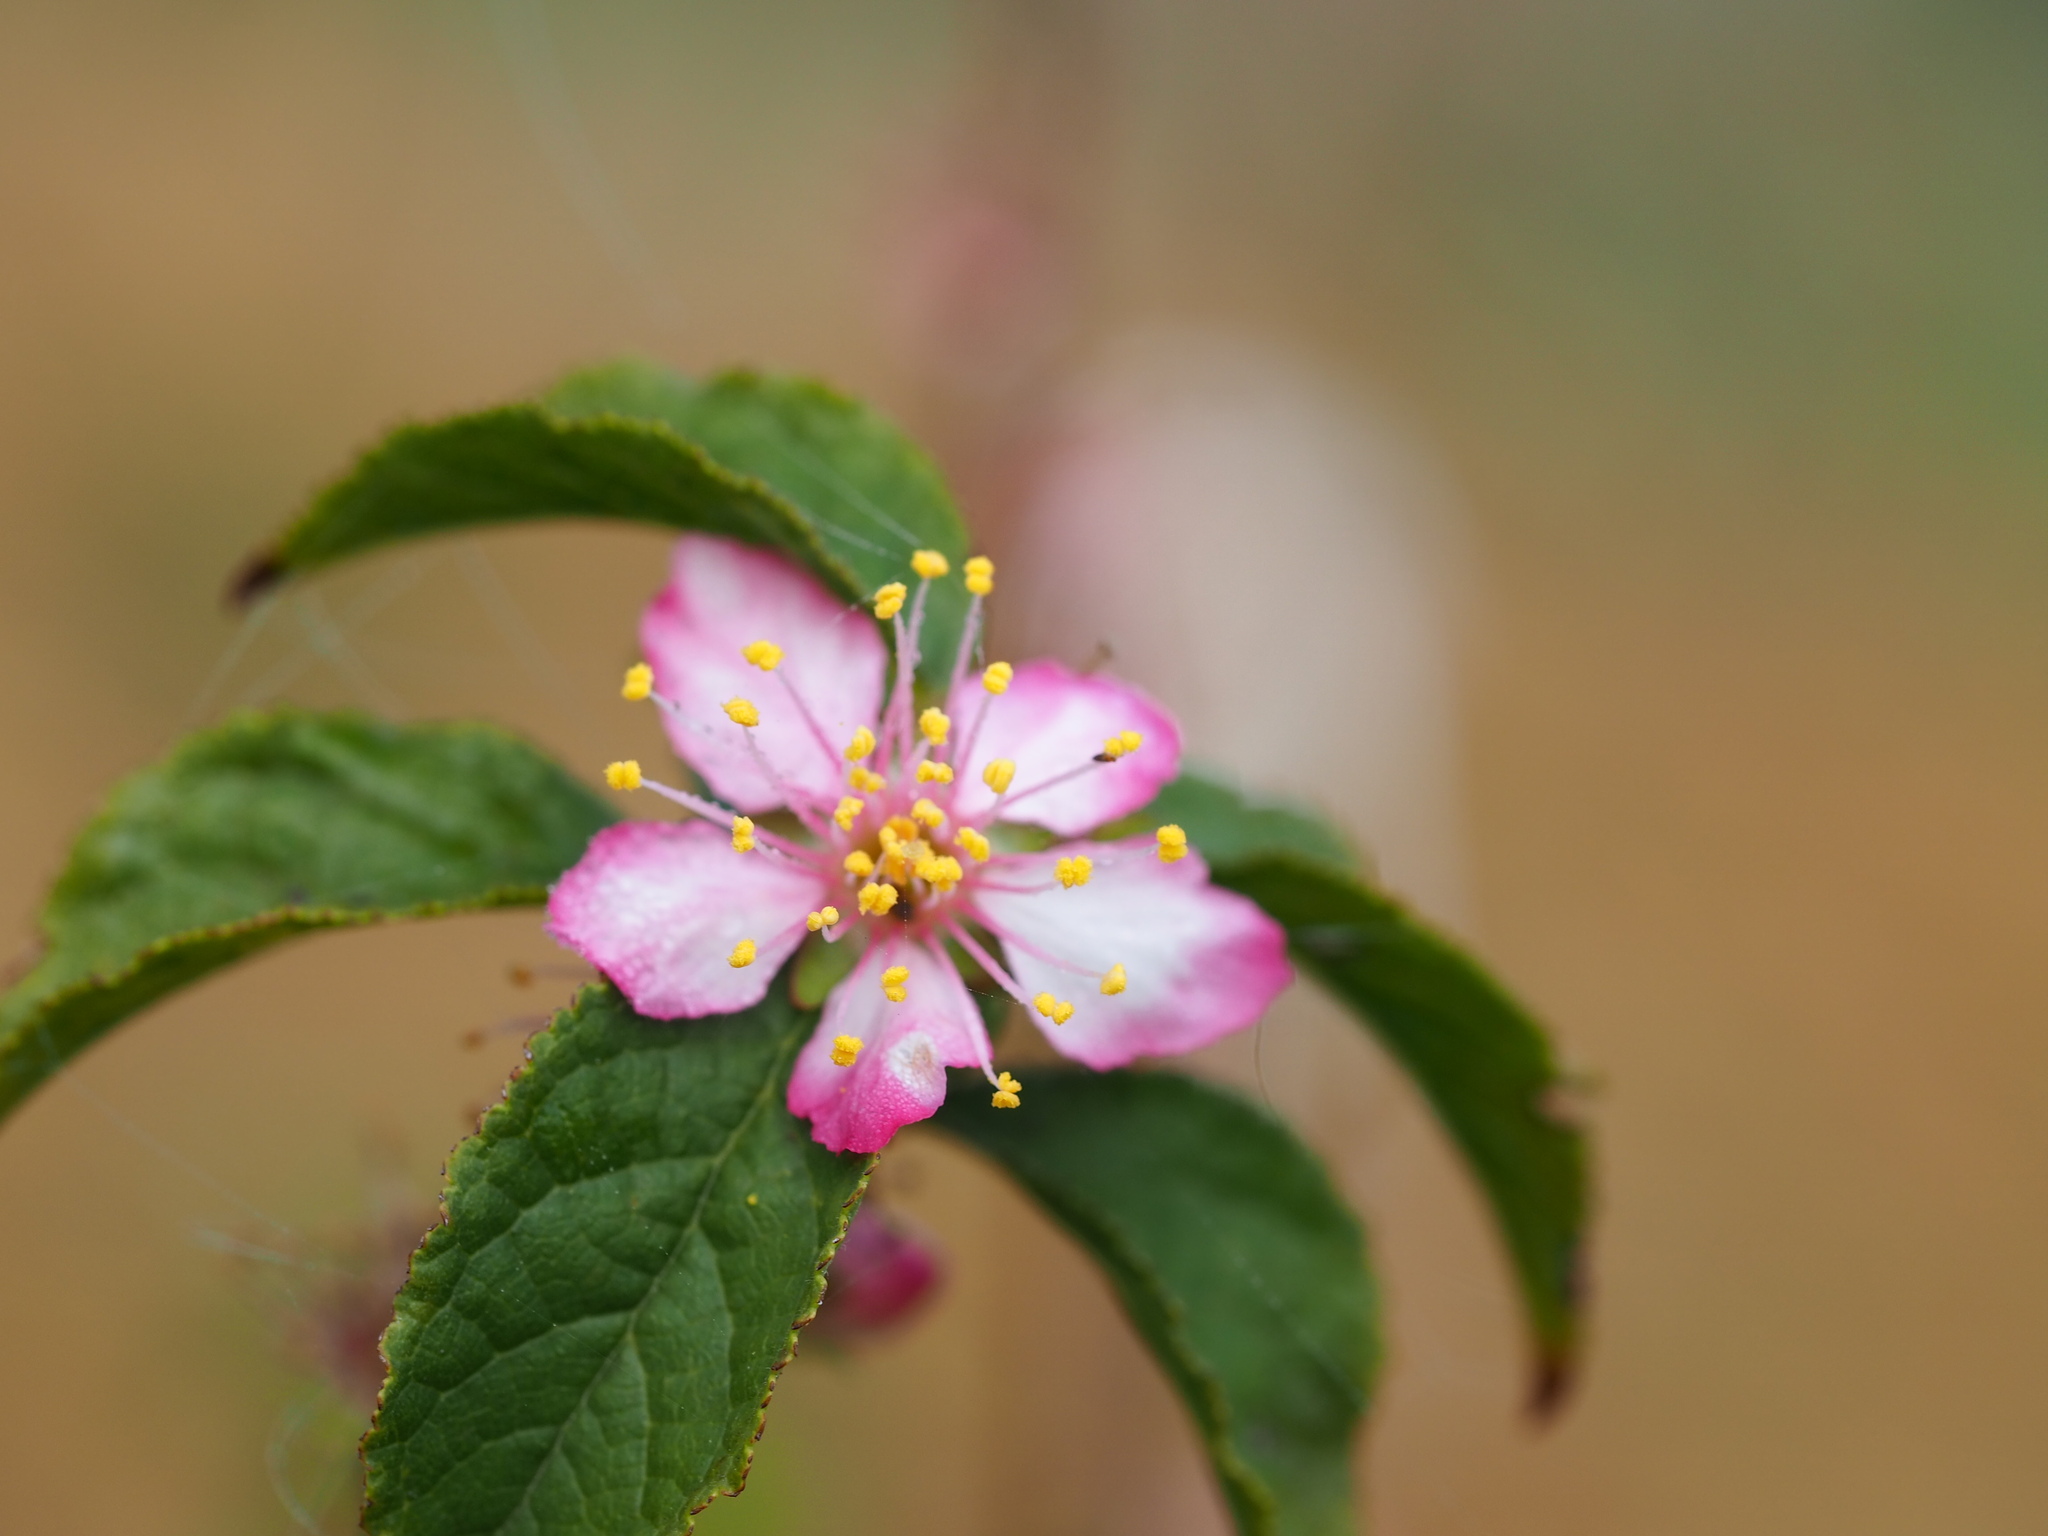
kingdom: Plantae
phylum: Tracheophyta
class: Magnoliopsida
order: Rosales
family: Rosaceae
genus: Prunus
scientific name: Prunus pogonostyla
